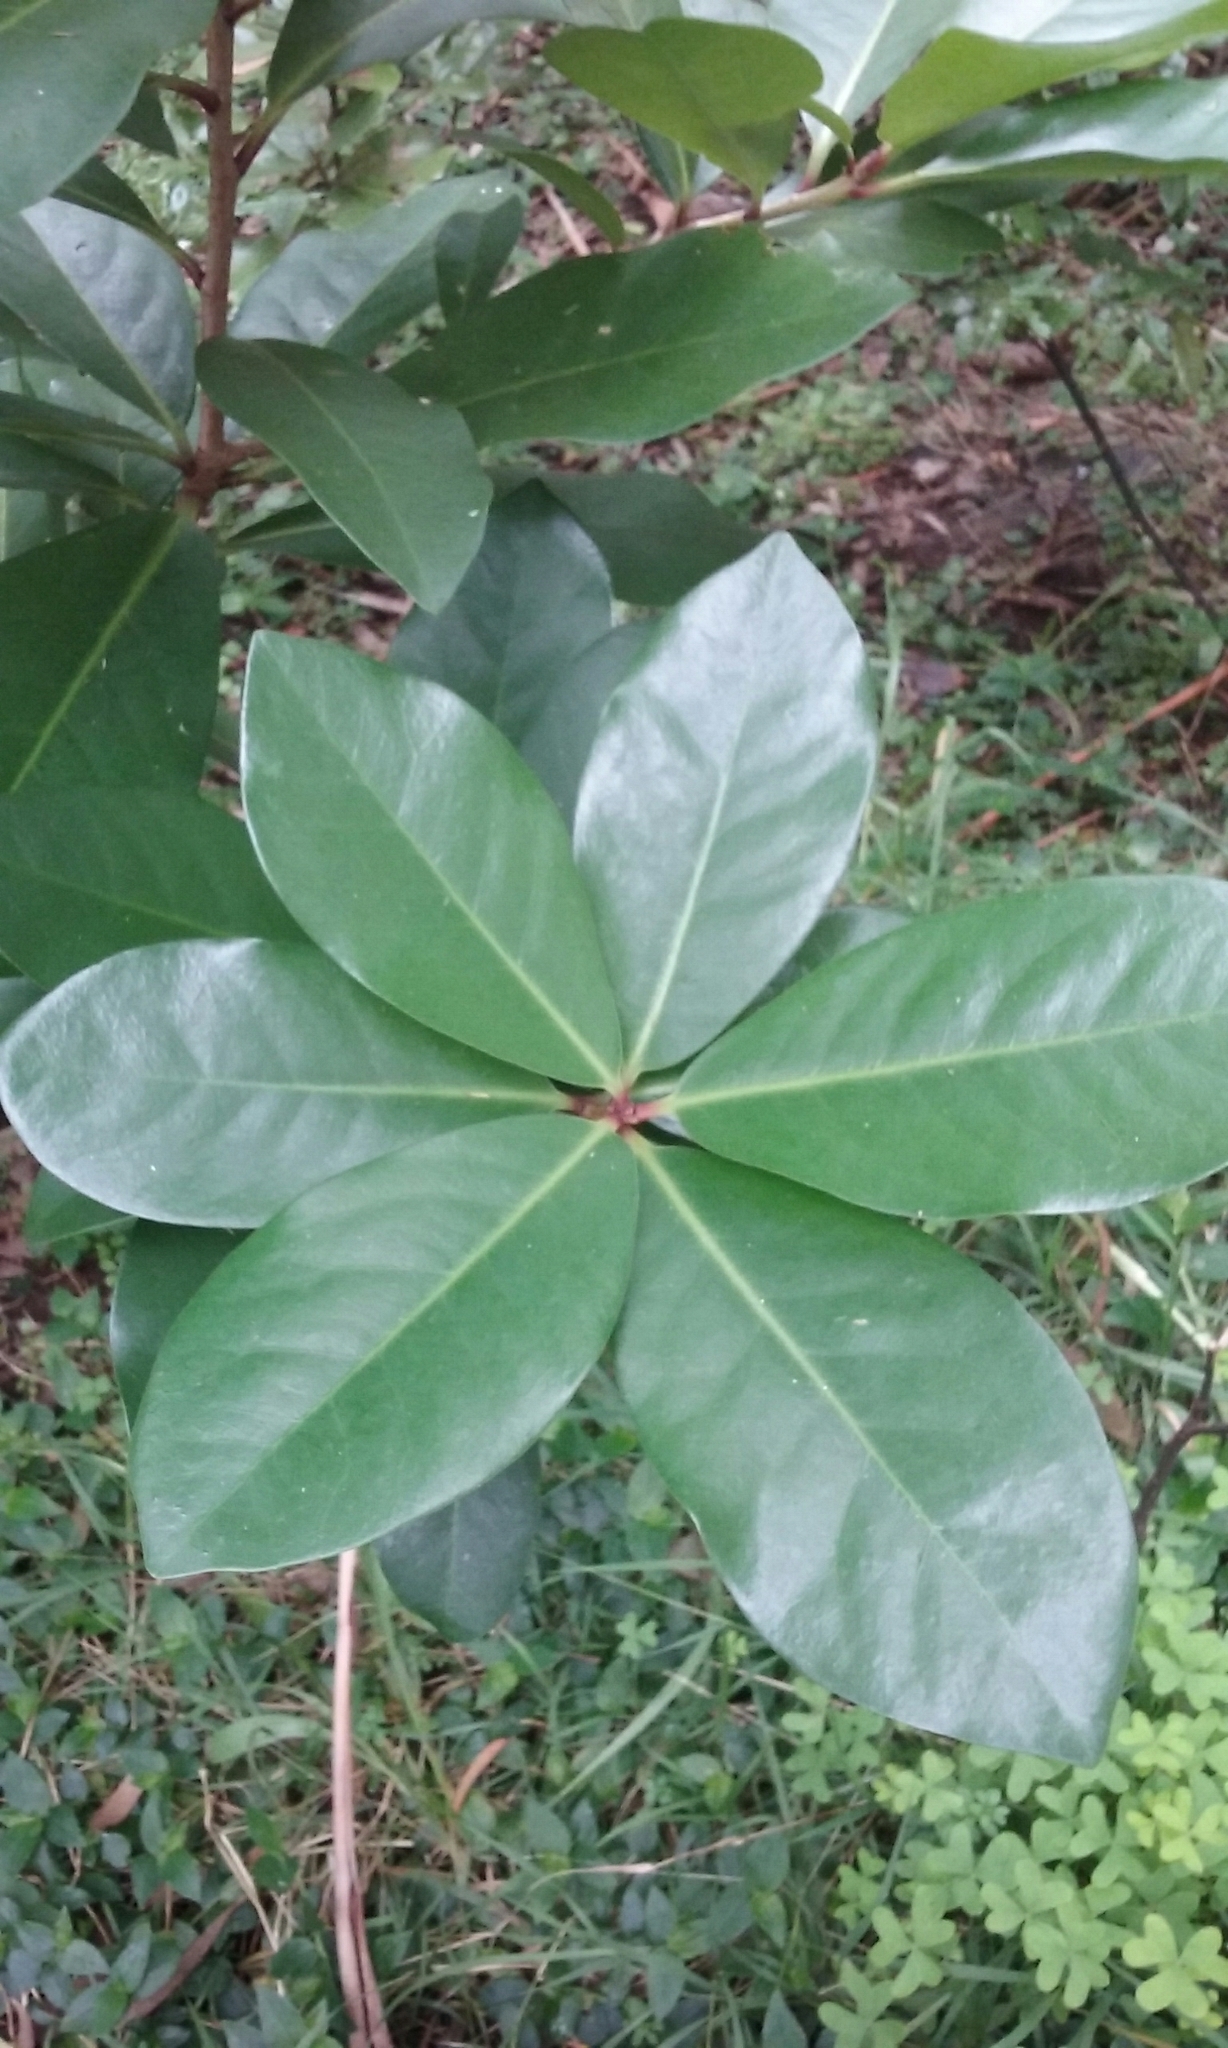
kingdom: Plantae
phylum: Tracheophyta
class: Magnoliopsida
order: Cucurbitales
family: Corynocarpaceae
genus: Corynocarpus
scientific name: Corynocarpus laevigatus
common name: New zealand laurel
